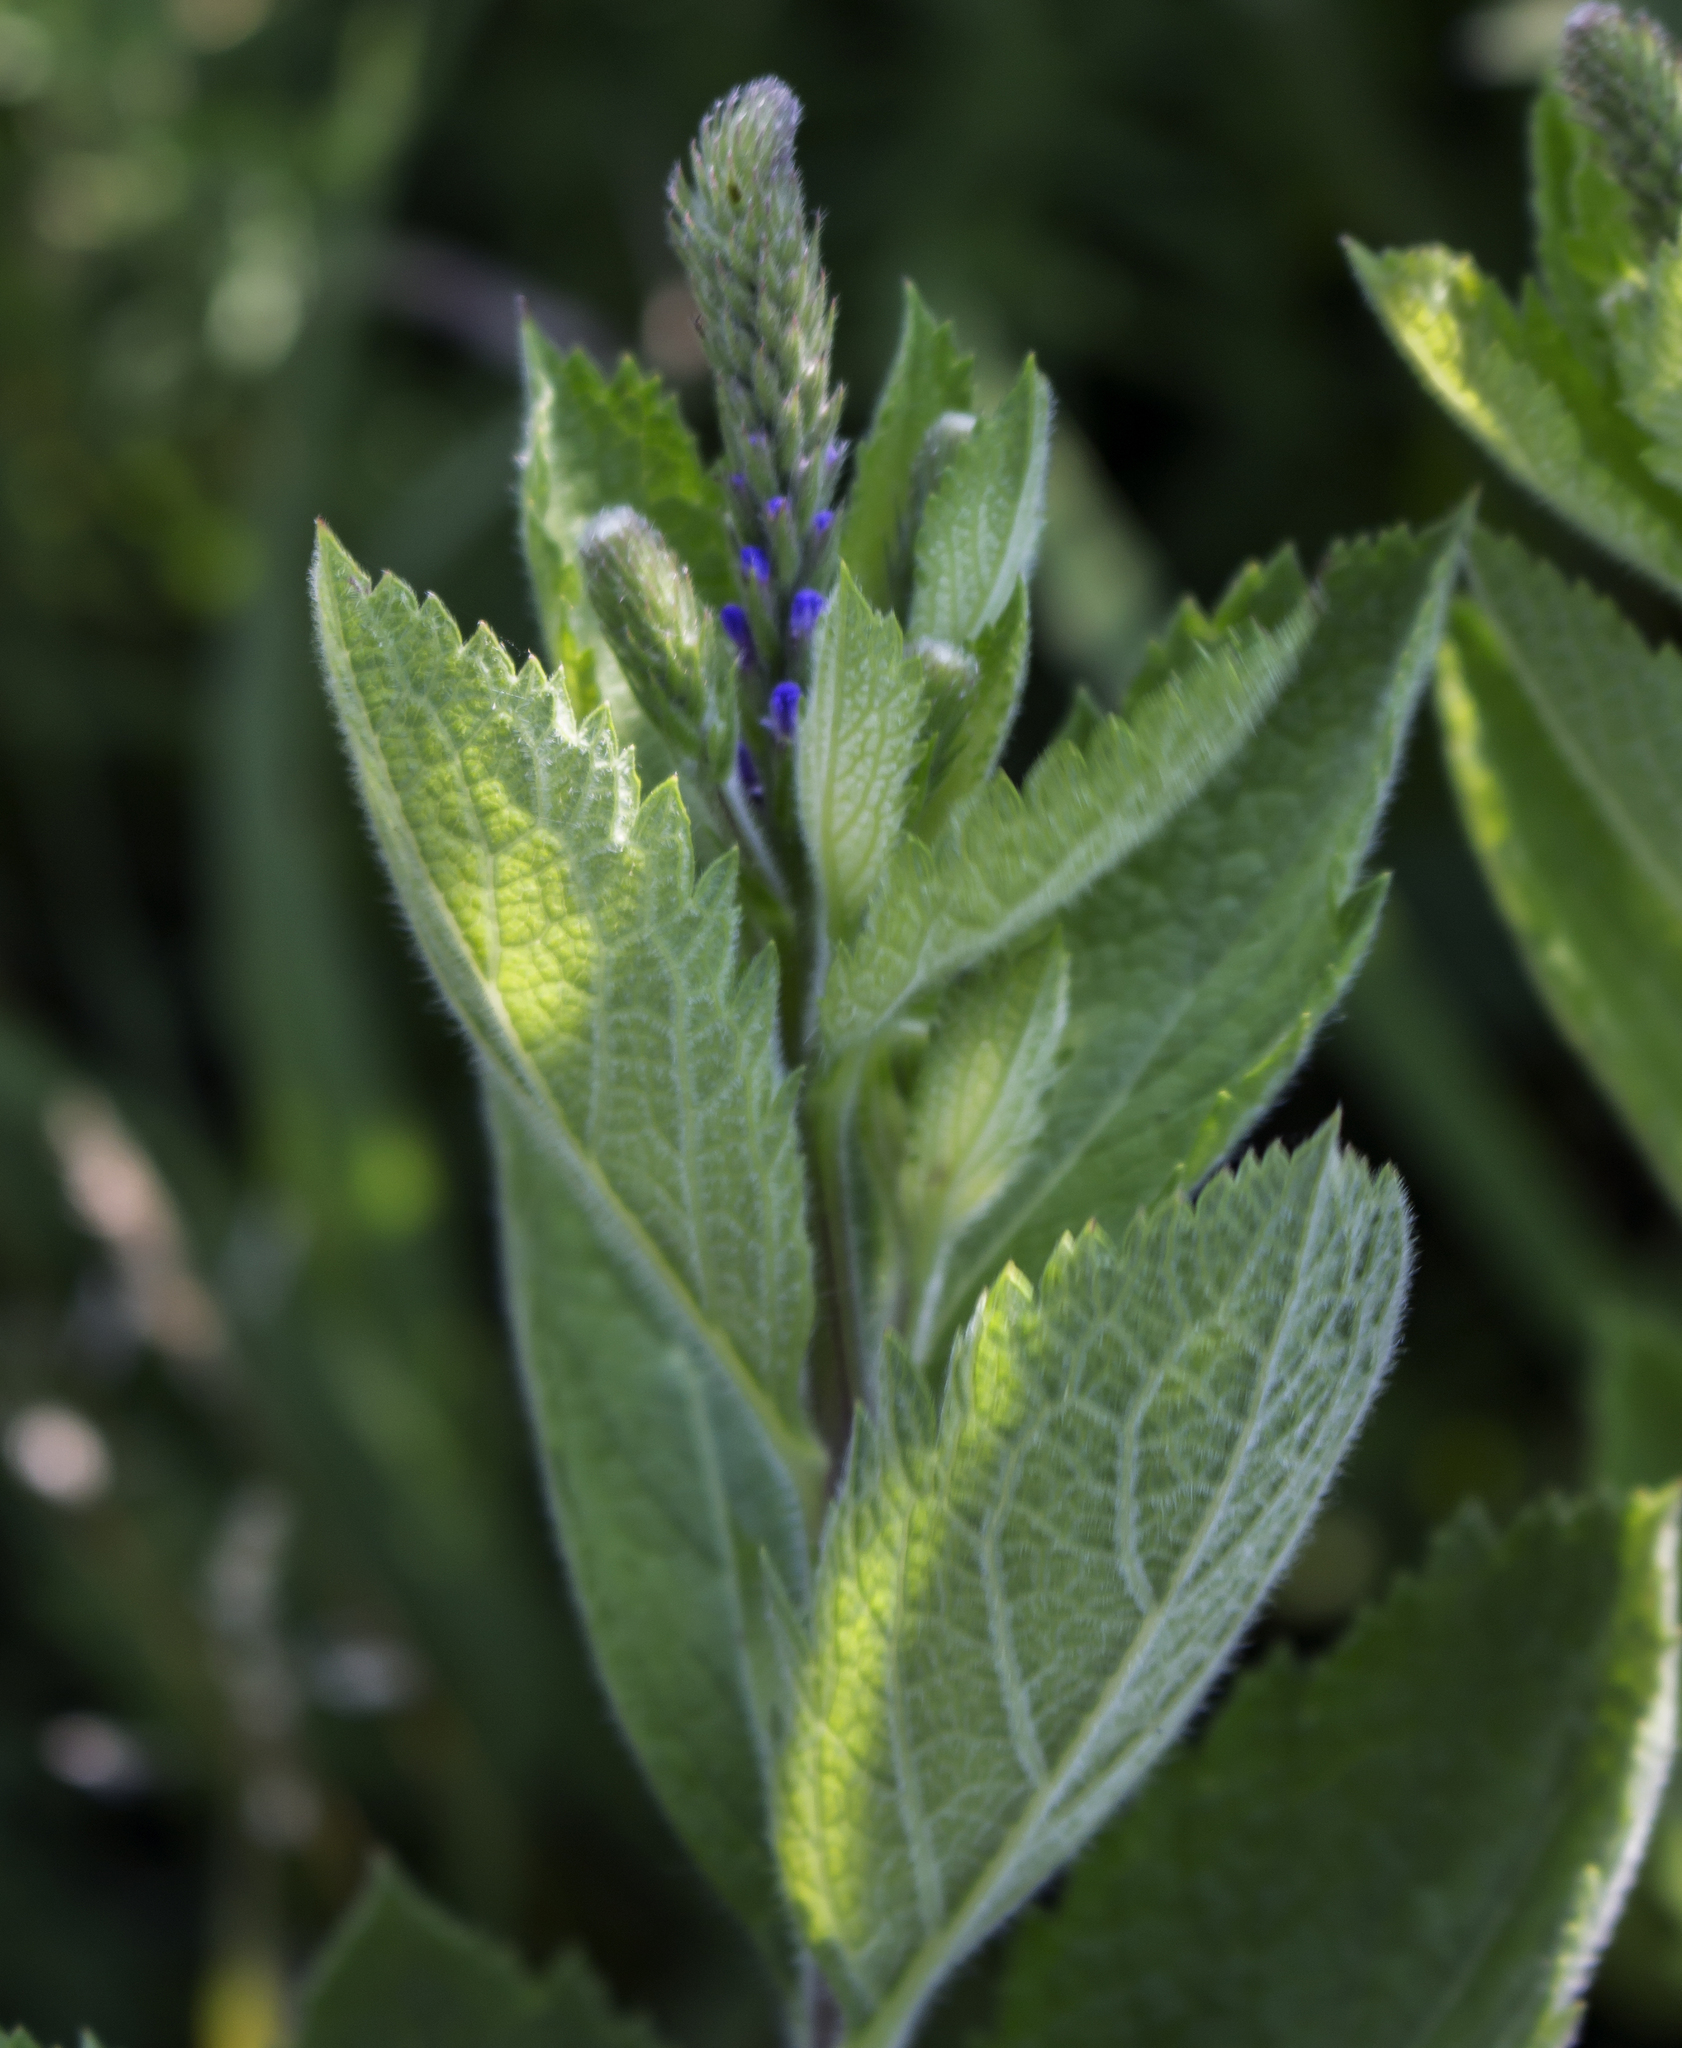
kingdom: Plantae
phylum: Tracheophyta
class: Magnoliopsida
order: Lamiales
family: Verbenaceae
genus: Verbena
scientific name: Verbena stricta
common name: Hoary vervain
